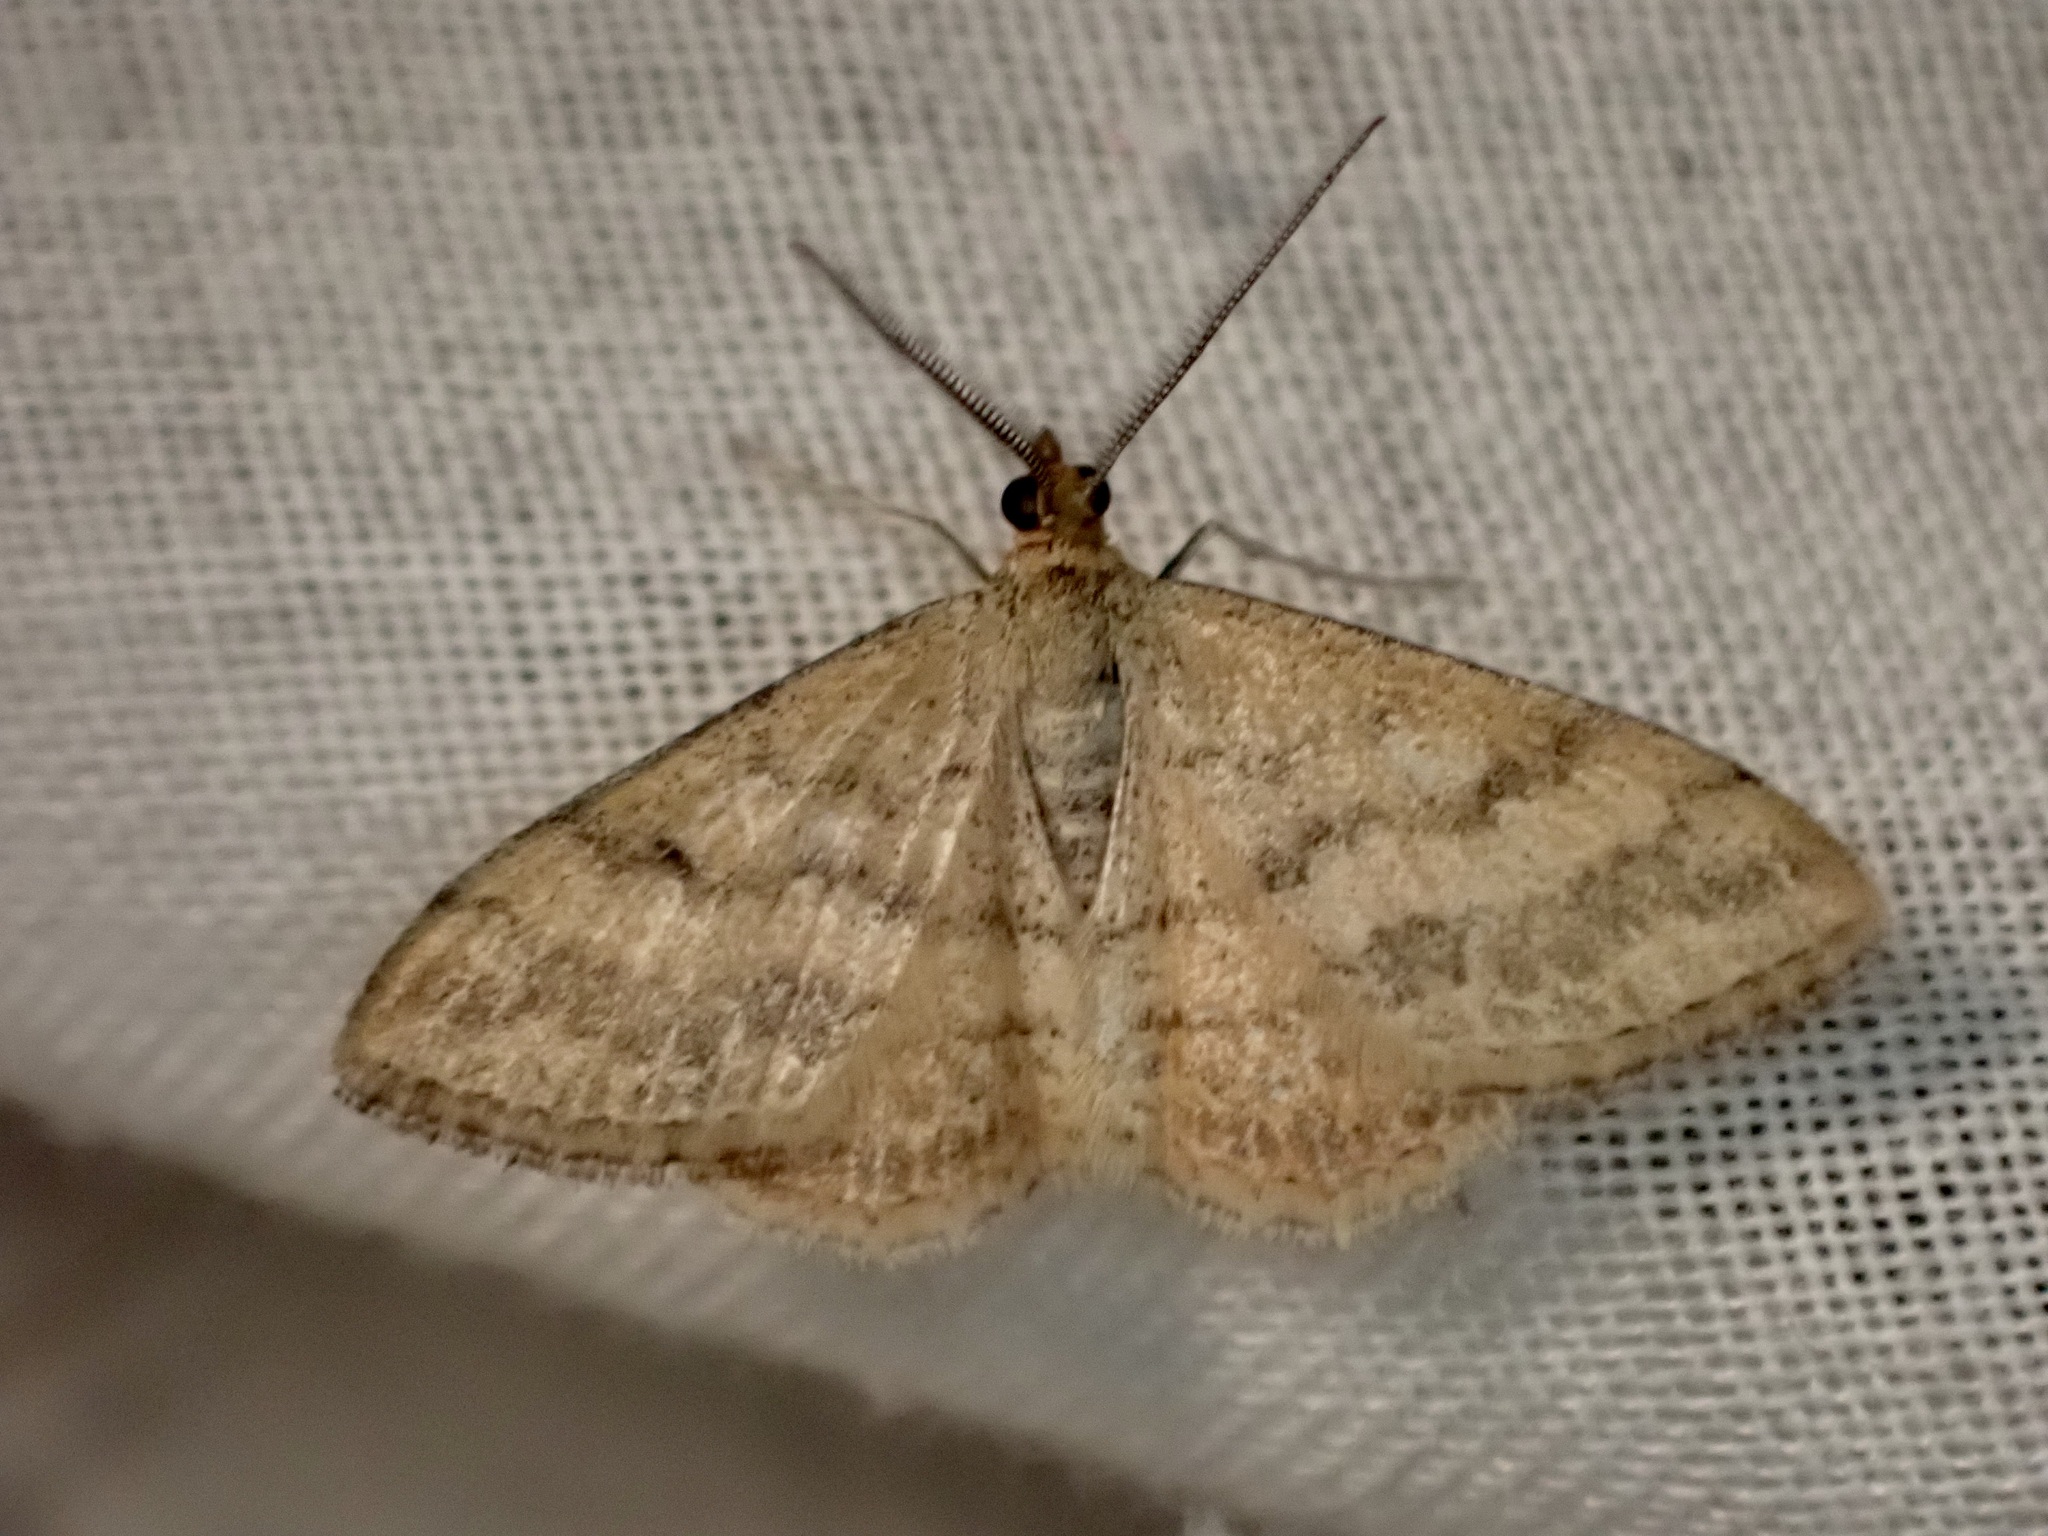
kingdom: Animalia
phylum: Arthropoda
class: Insecta
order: Lepidoptera
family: Geometridae
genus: Scopula
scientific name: Scopula rubraria
